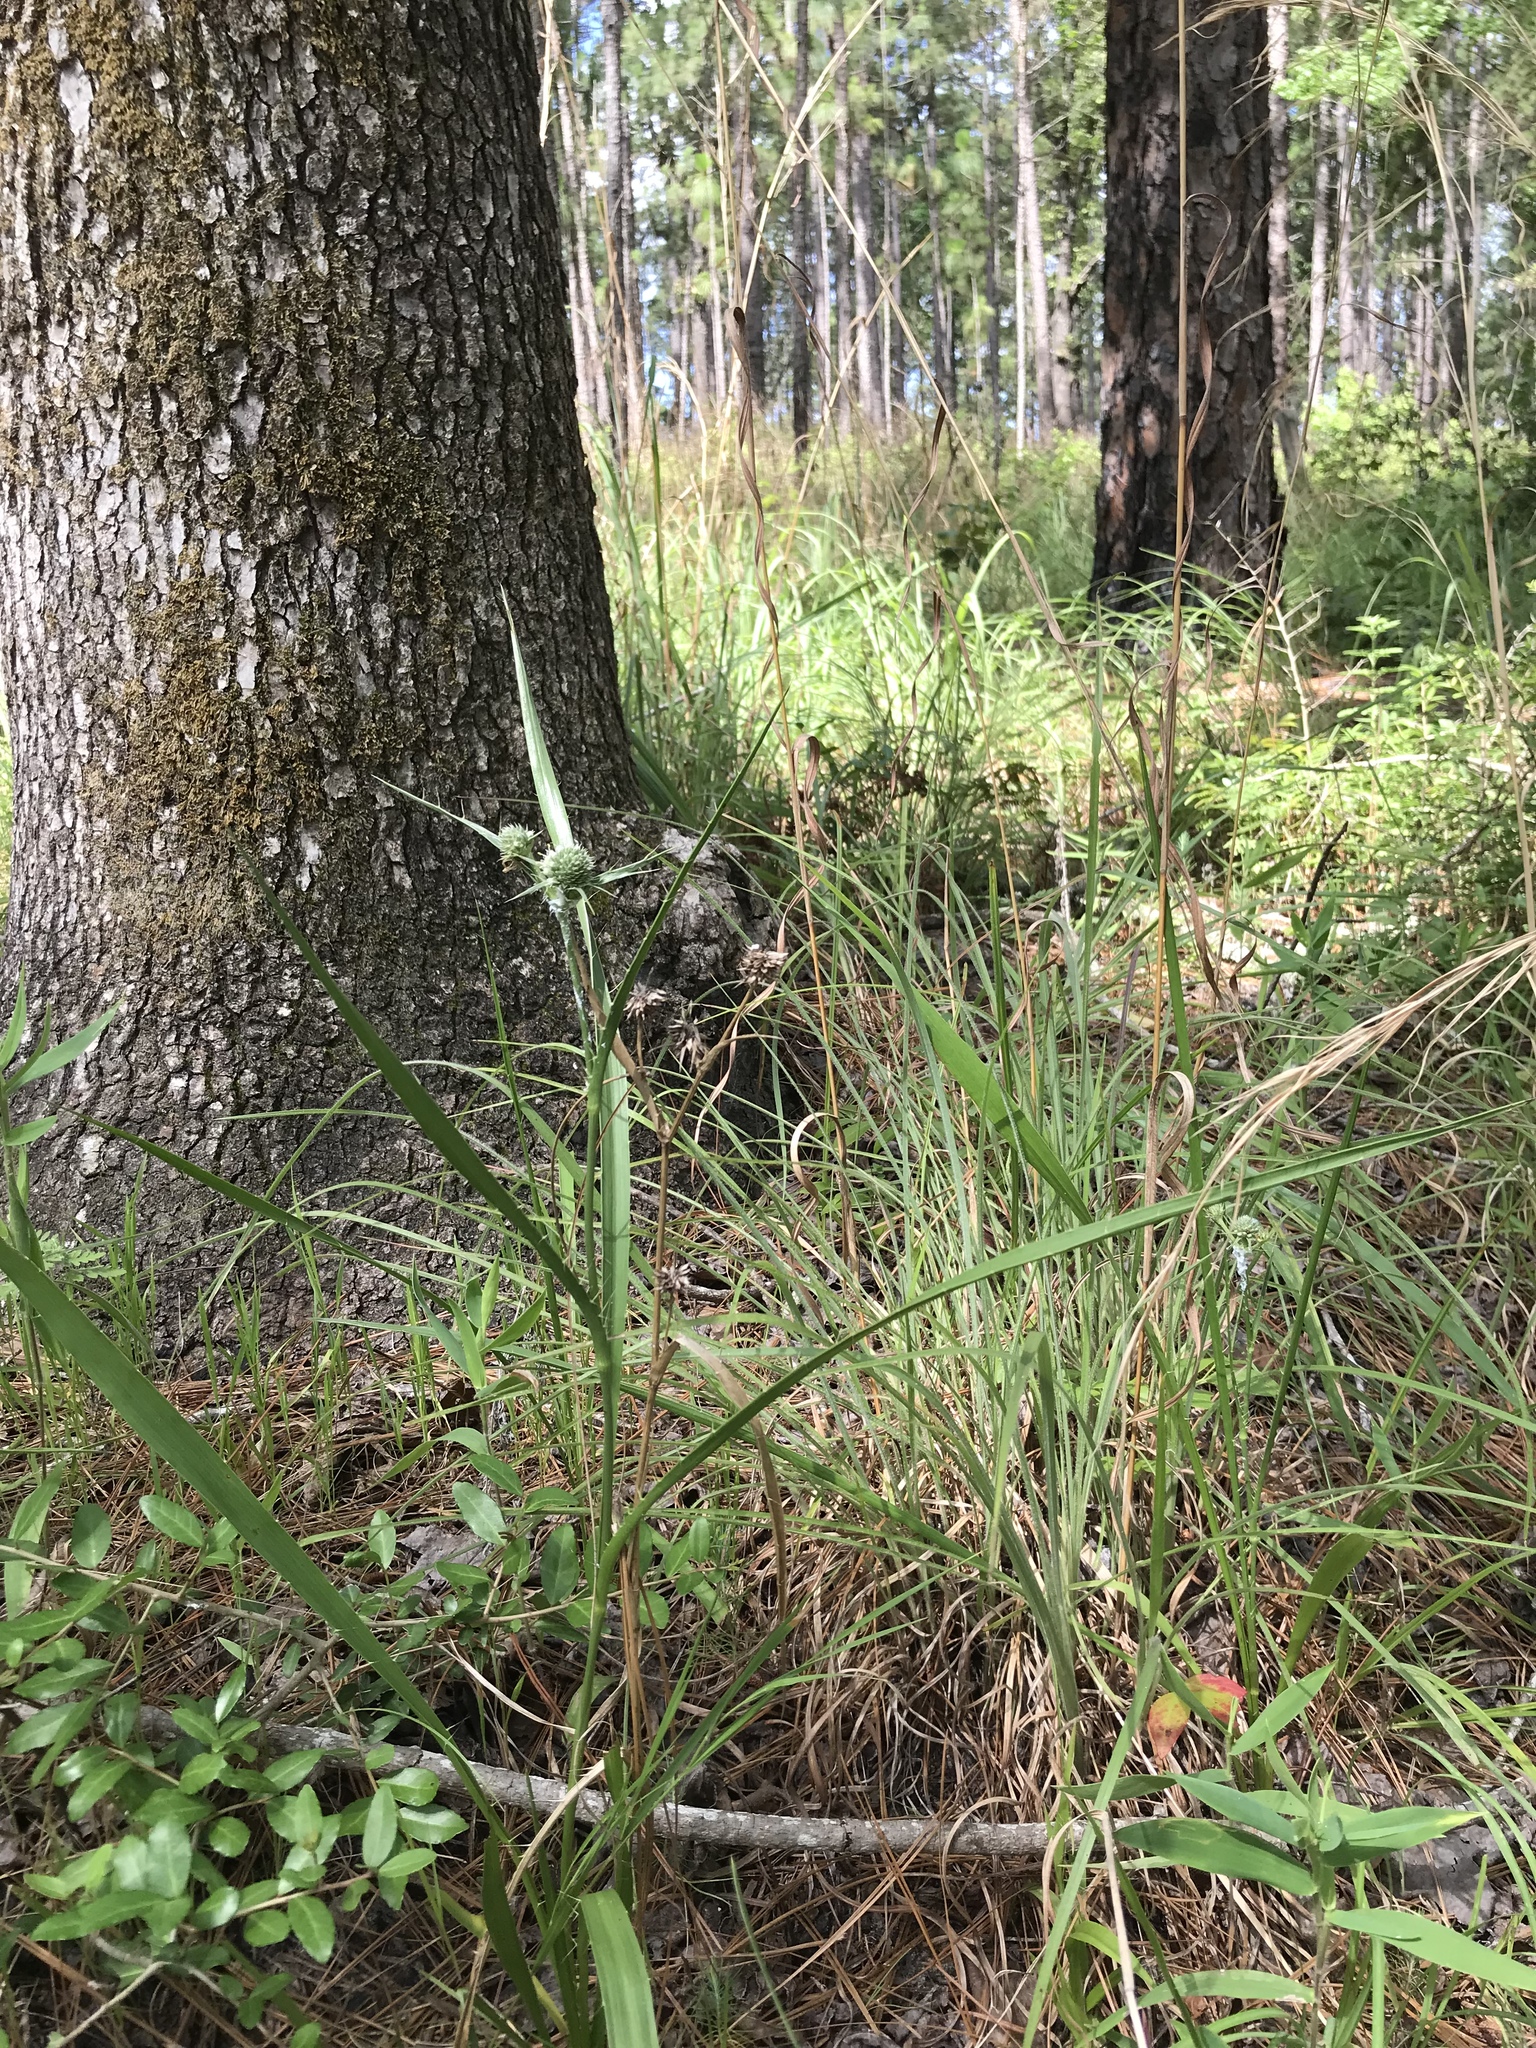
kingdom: Plantae
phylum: Tracheophyta
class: Magnoliopsida
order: Apiales
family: Apiaceae
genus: Eryngium
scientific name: Eryngium yuccifolium
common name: Button eryngo
